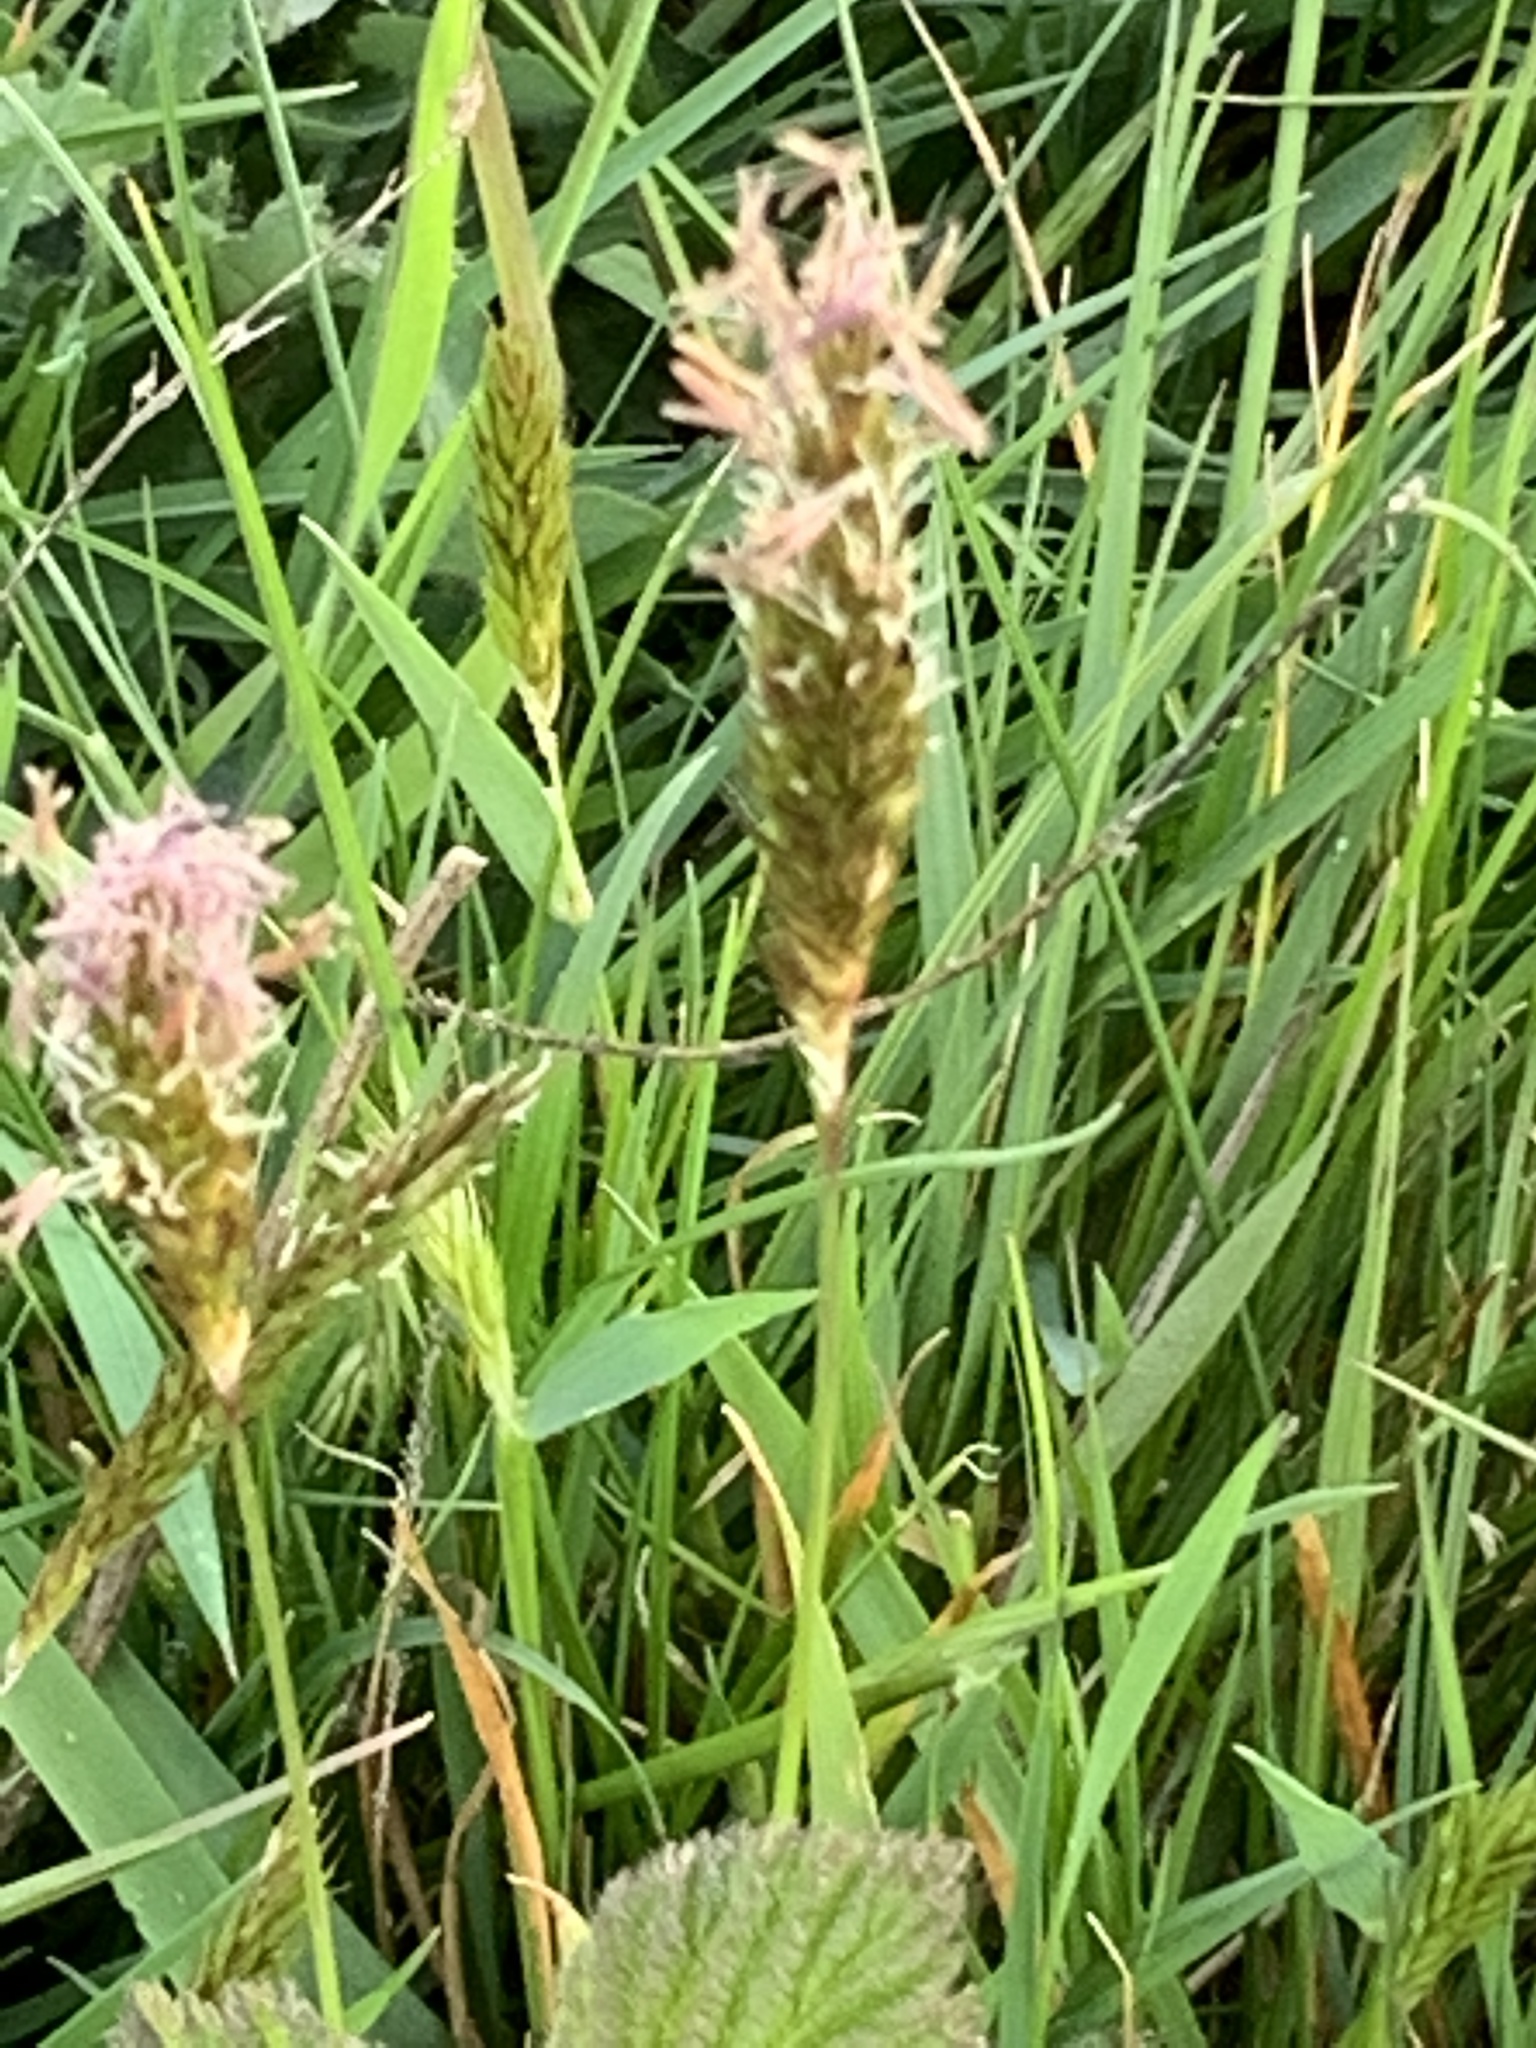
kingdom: Plantae
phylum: Tracheophyta
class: Liliopsida
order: Poales
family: Poaceae
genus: Anthoxanthum
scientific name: Anthoxanthum odoratum
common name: Sweet vernalgrass
